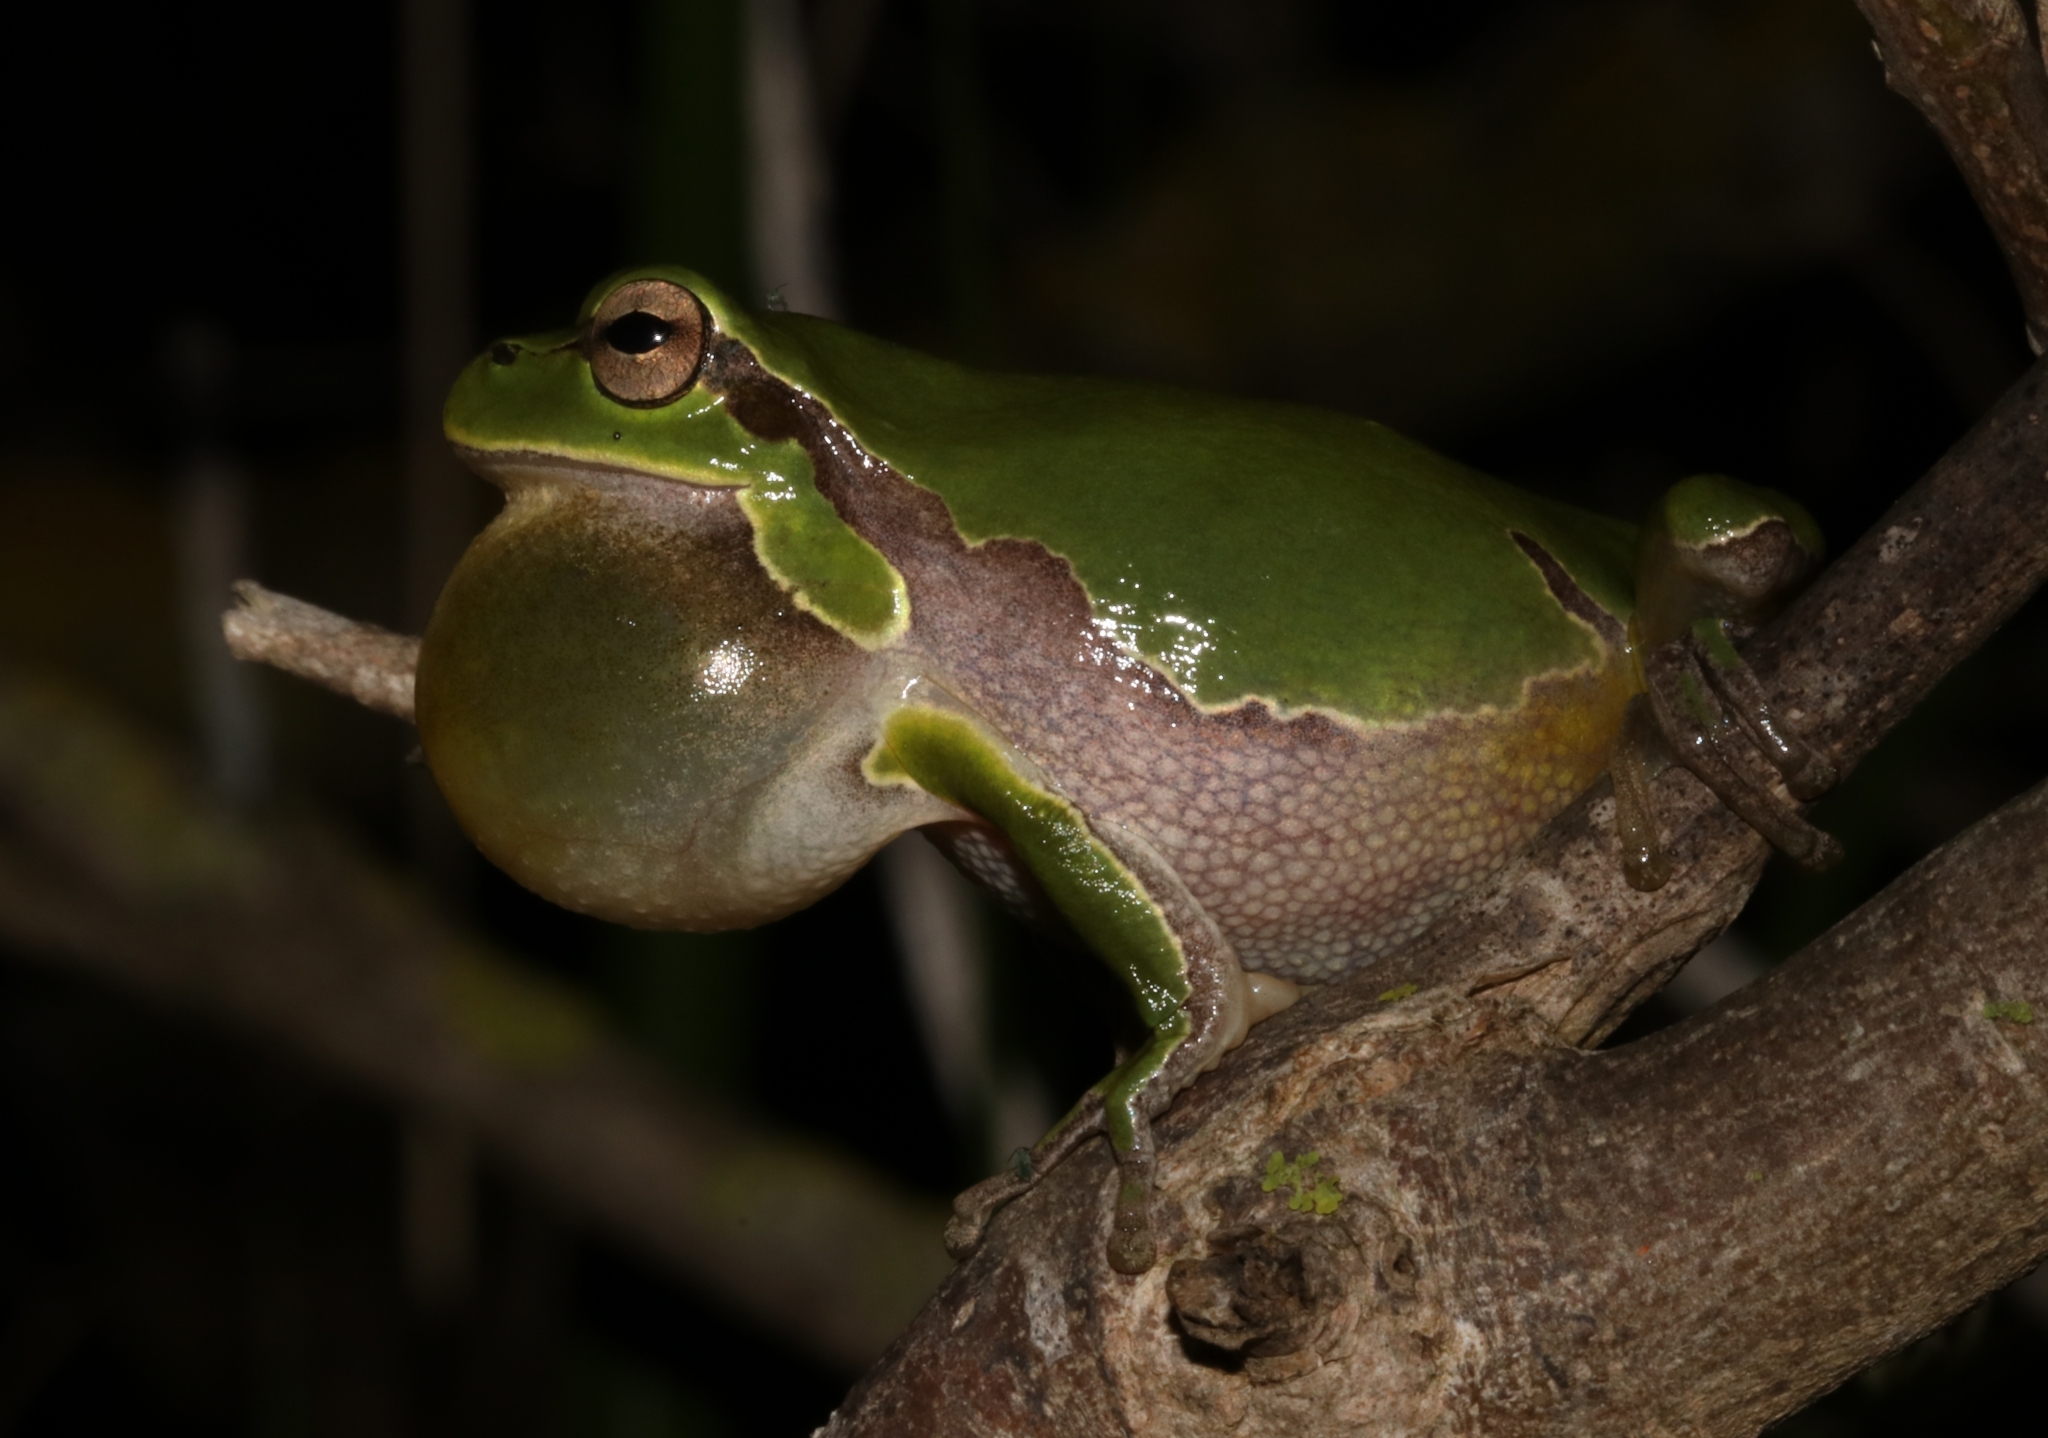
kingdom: Animalia
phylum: Chordata
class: Amphibia
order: Anura
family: Hylidae
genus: Hyla
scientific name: Hyla arborea
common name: Common tree frog
